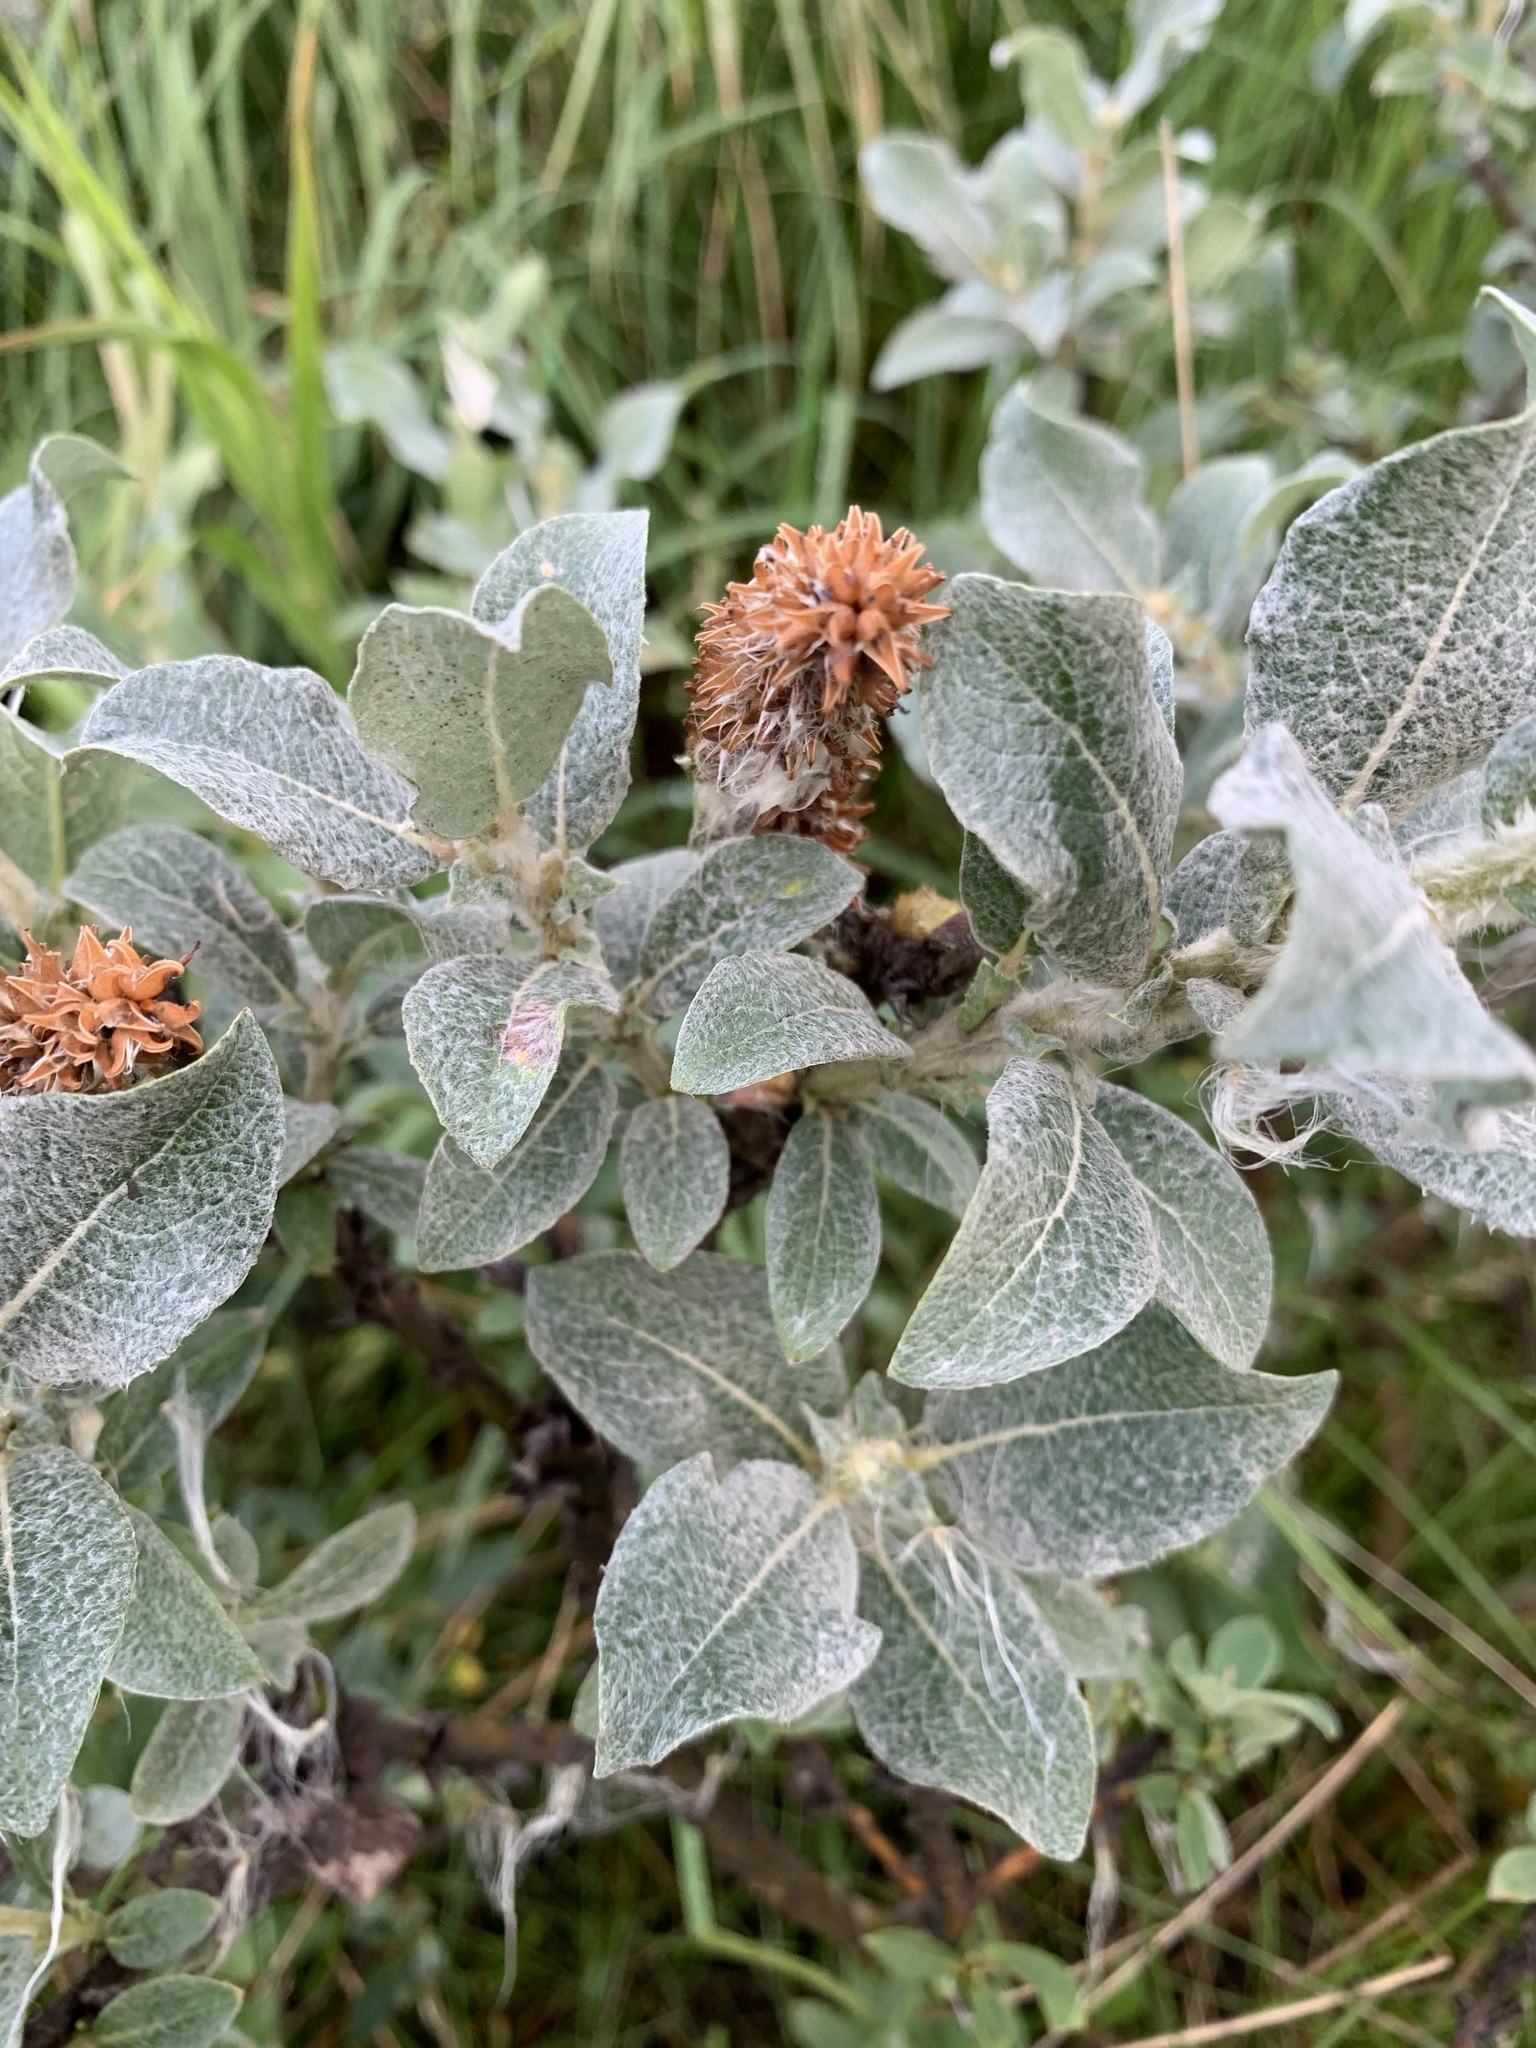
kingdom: Plantae
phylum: Tracheophyta
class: Magnoliopsida
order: Malpighiales
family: Salicaceae
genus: Salix
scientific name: Salix lanata
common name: Woolly willow
